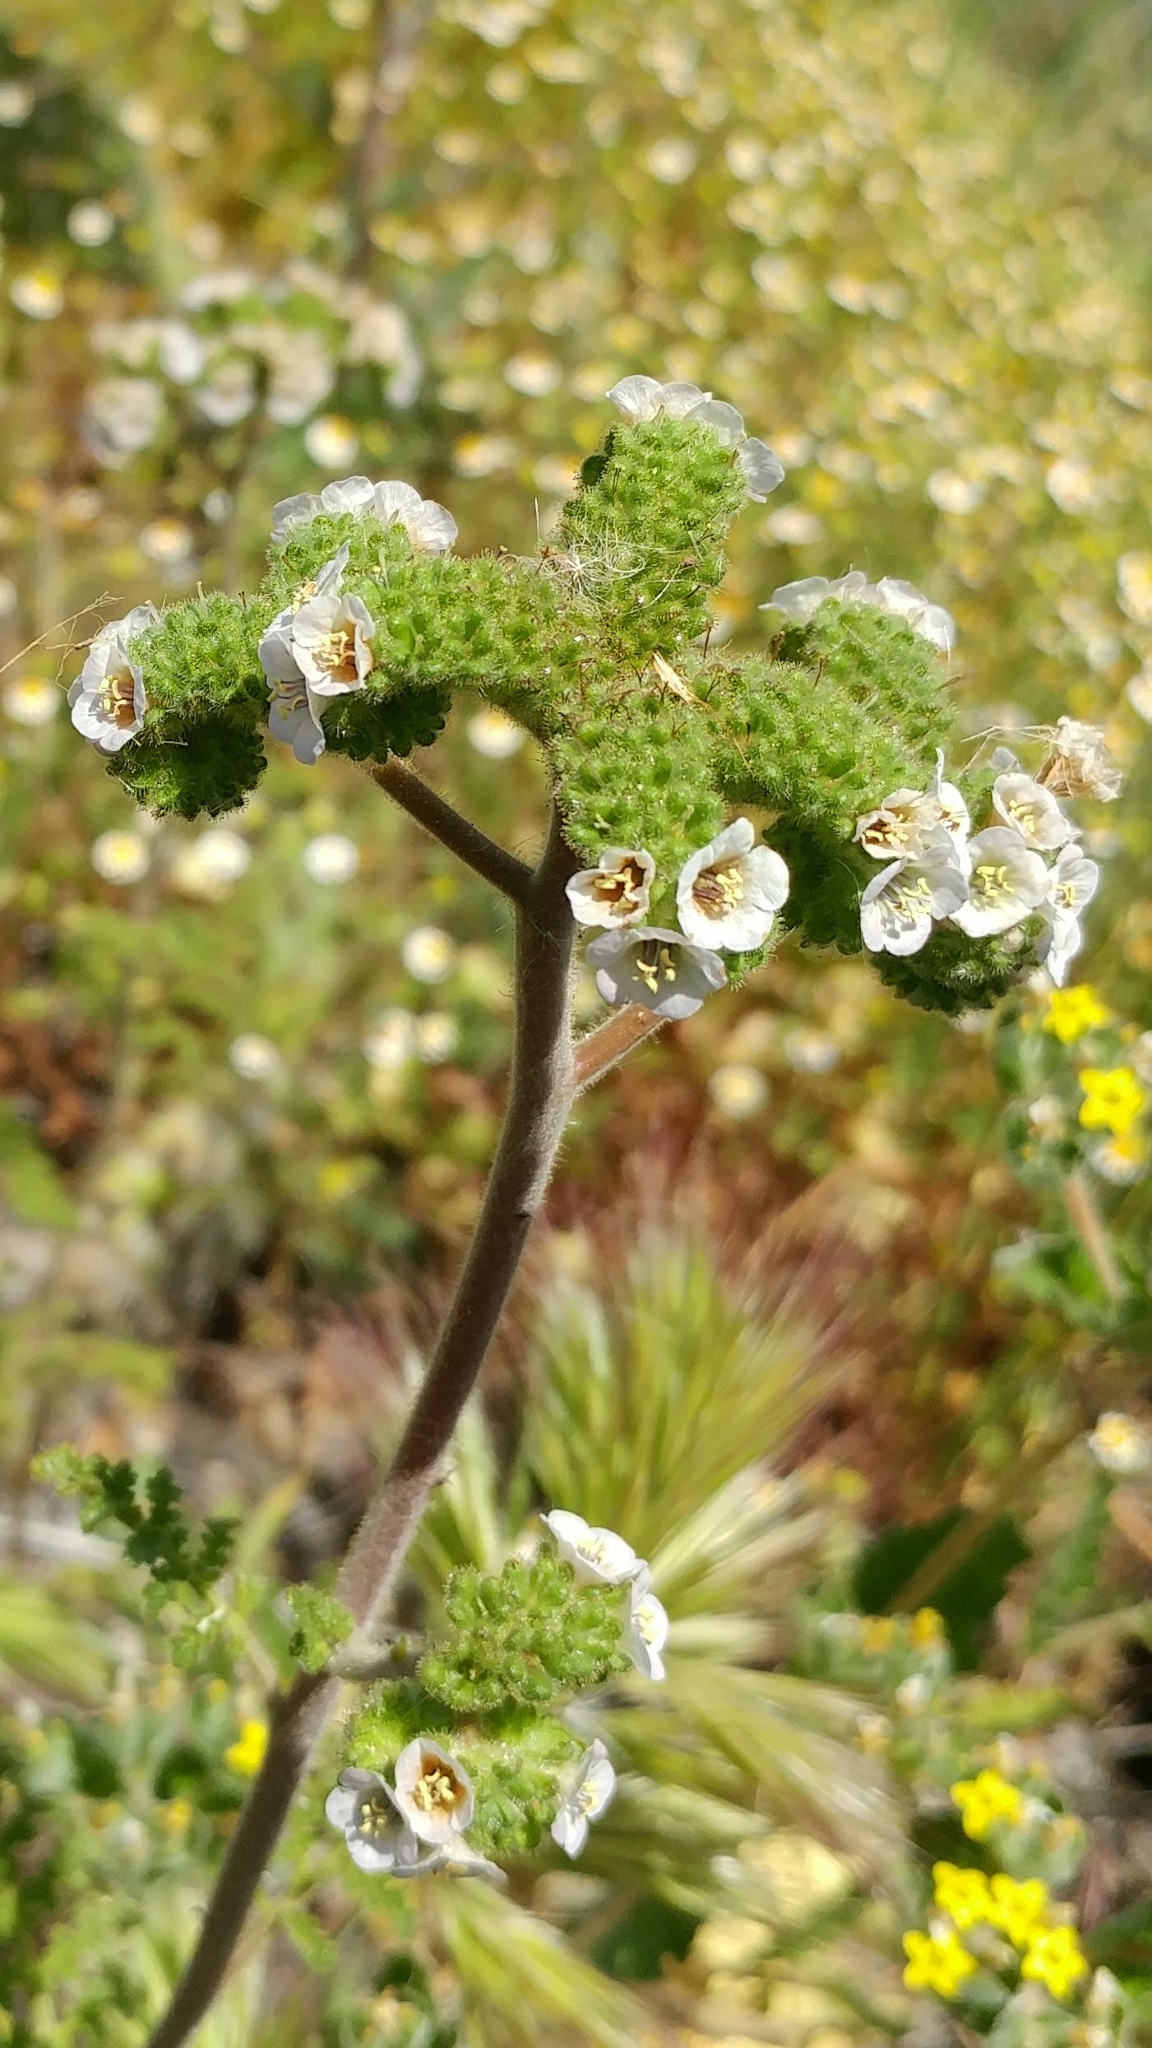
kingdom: Plantae
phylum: Tracheophyta
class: Magnoliopsida
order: Boraginales
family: Hydrophyllaceae
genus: Phacelia
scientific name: Phacelia lyonii
